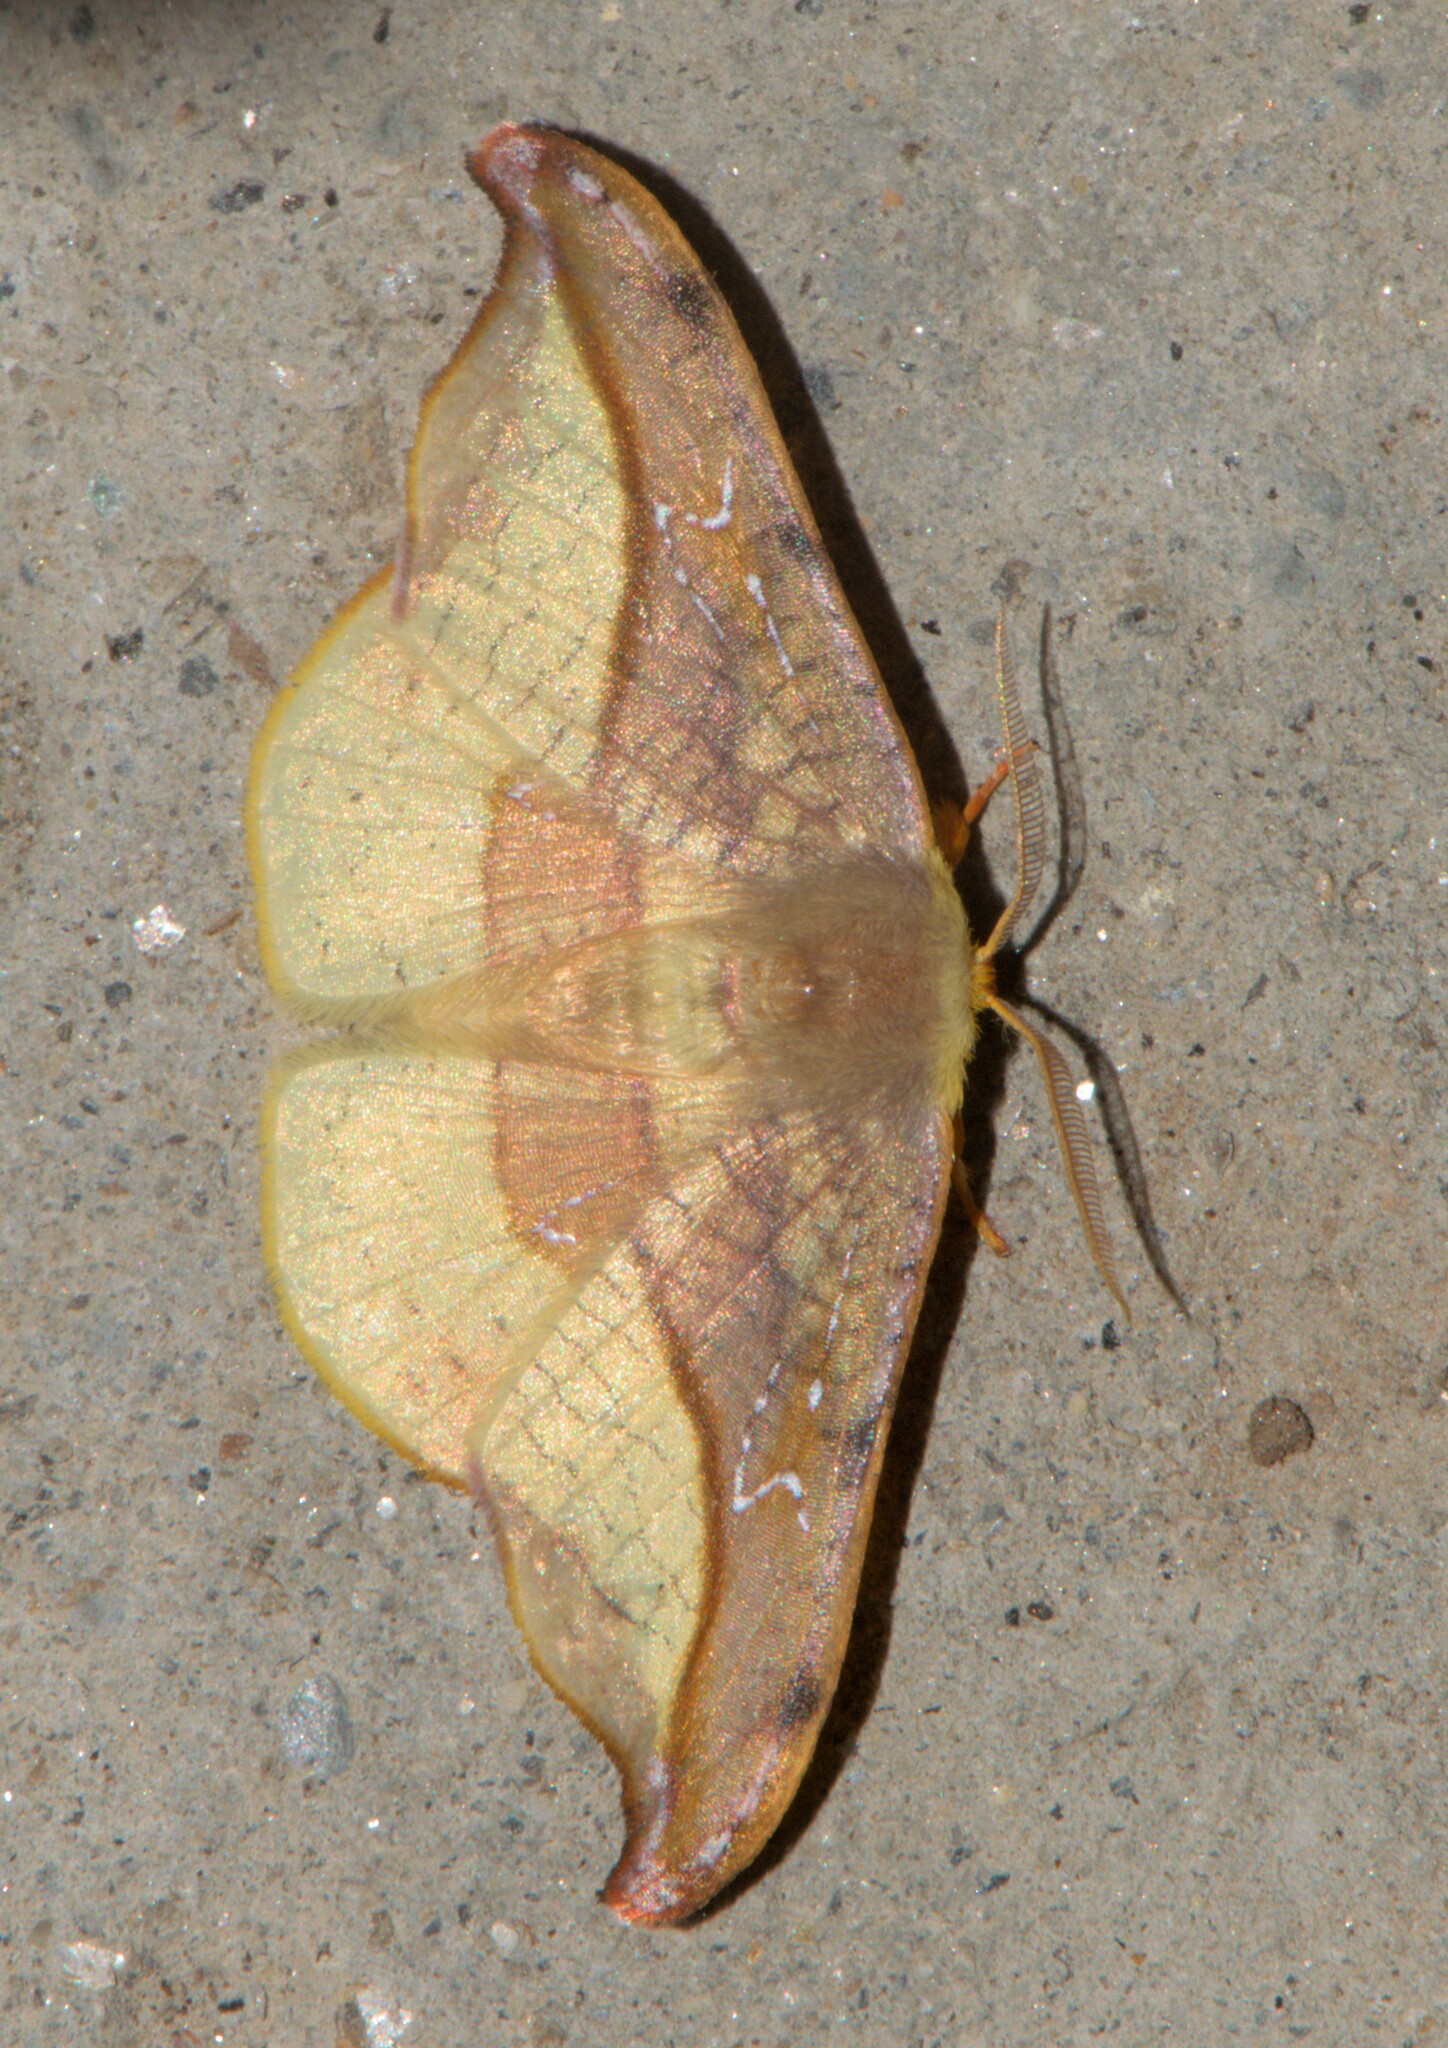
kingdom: Animalia
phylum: Arthropoda
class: Insecta
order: Lepidoptera
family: Drepanidae
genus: Oreta
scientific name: Oreta vatama
